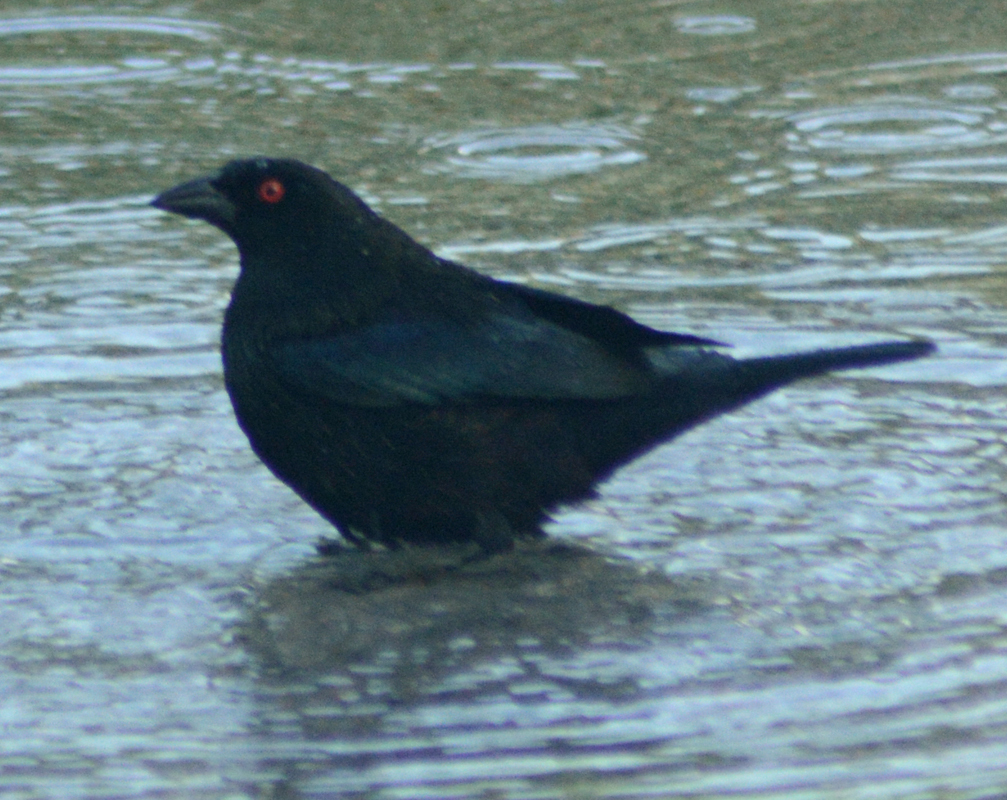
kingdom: Animalia
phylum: Chordata
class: Aves
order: Passeriformes
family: Icteridae
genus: Molothrus
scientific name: Molothrus aeneus
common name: Bronzed cowbird
